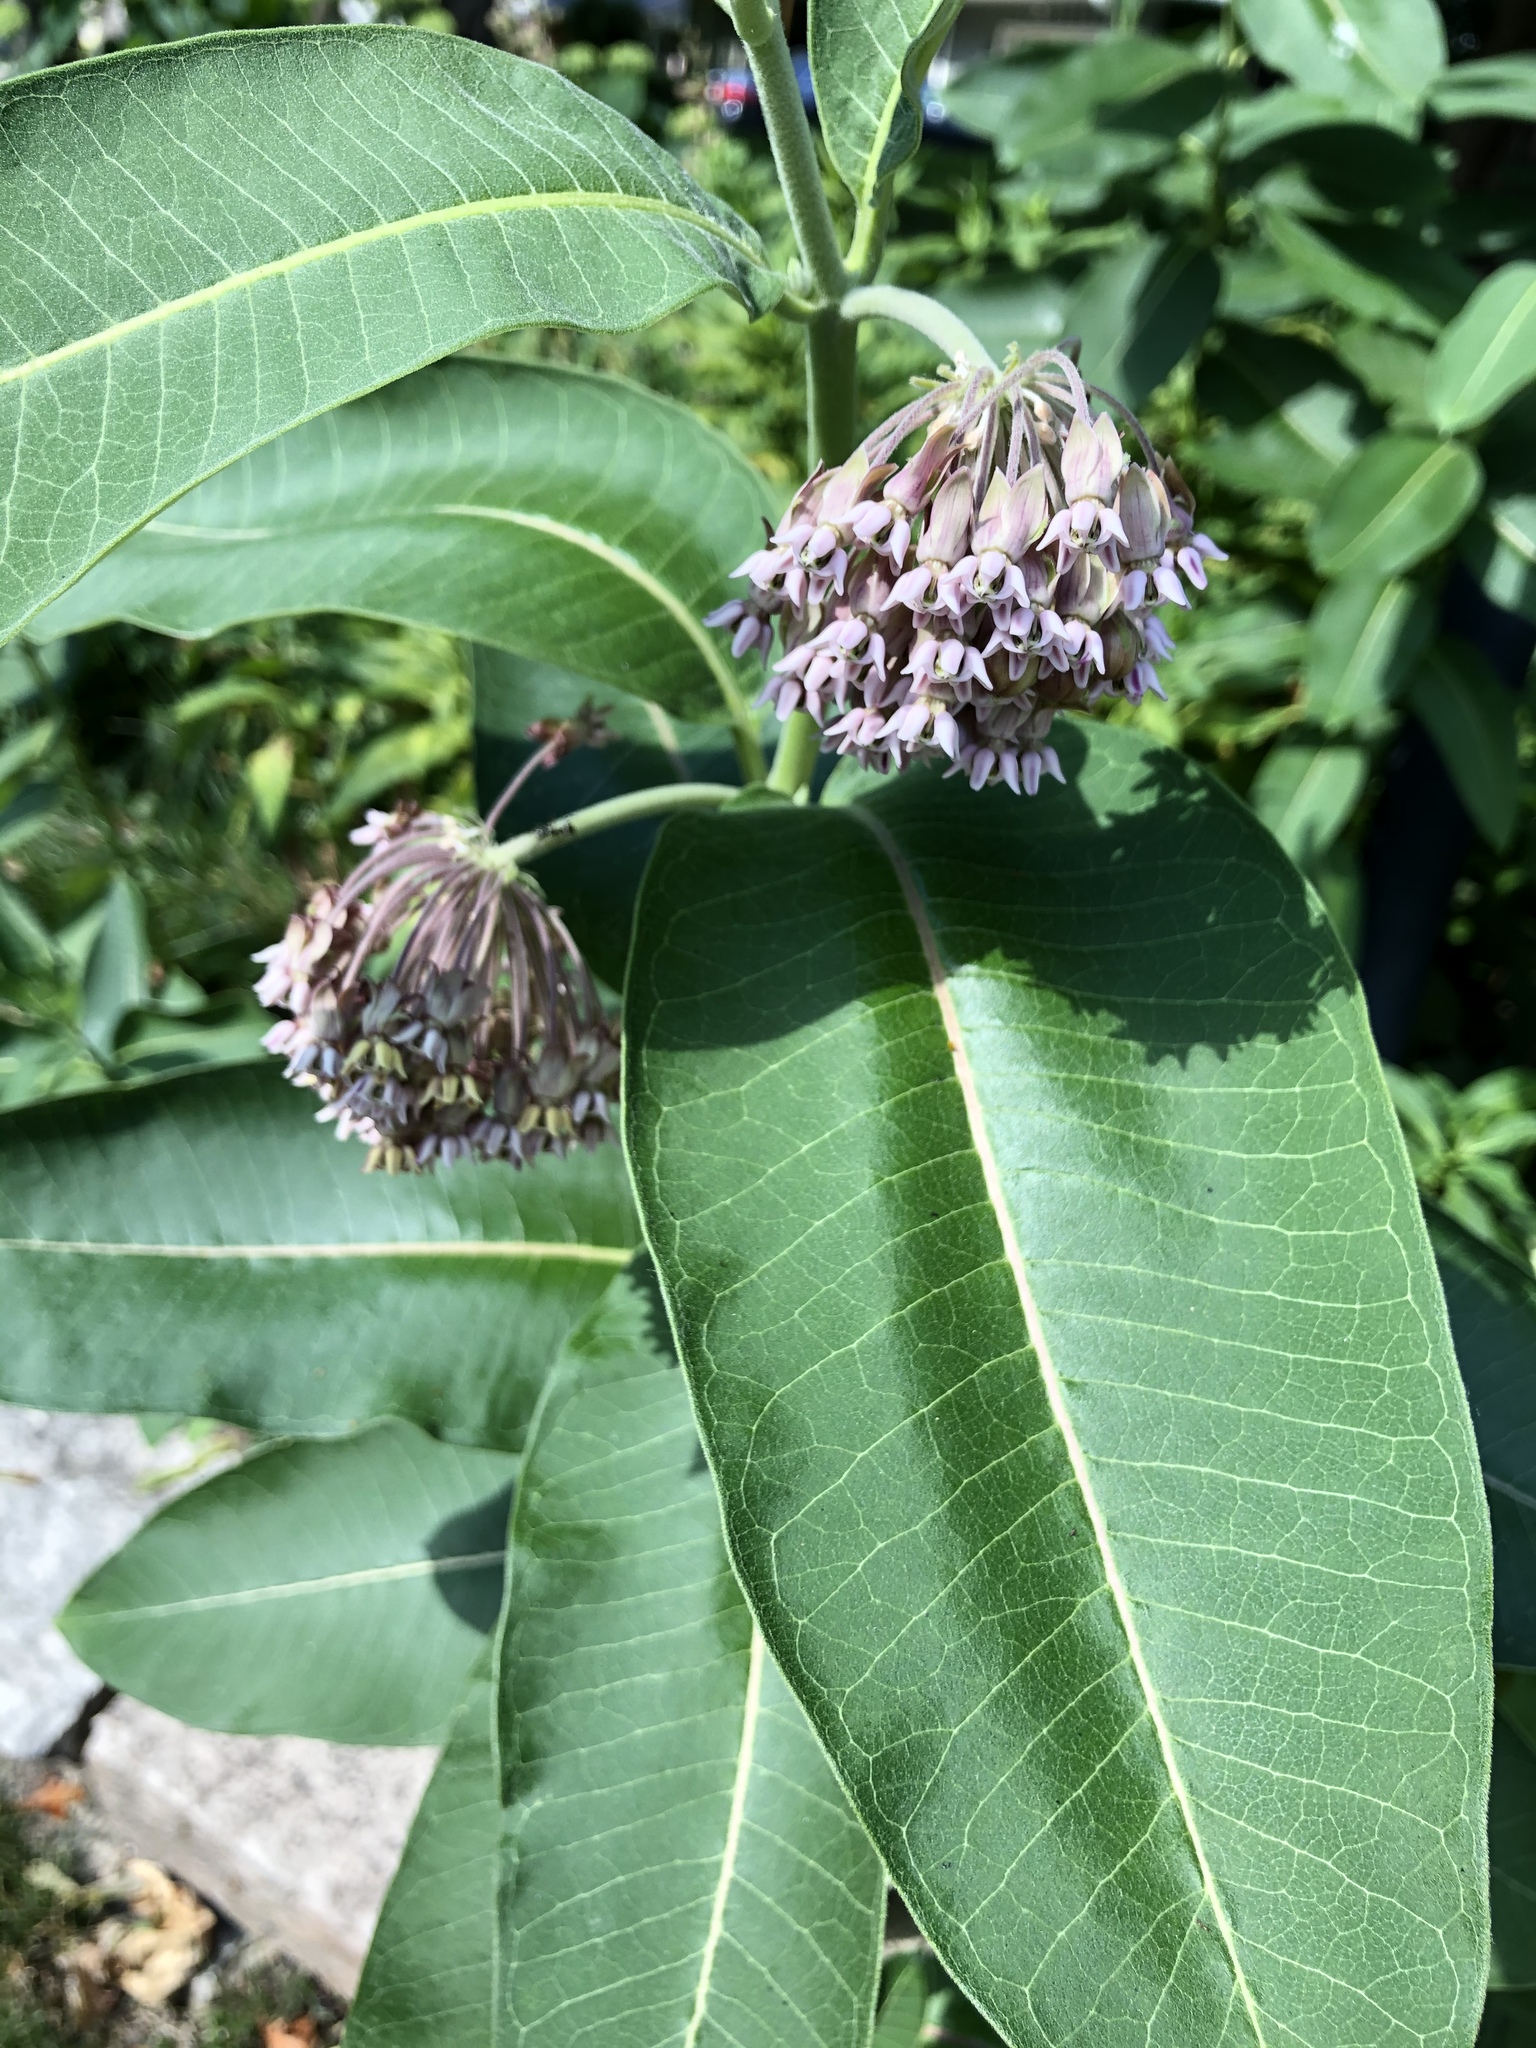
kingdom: Plantae
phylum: Tracheophyta
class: Magnoliopsida
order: Gentianales
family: Apocynaceae
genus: Asclepias
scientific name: Asclepias syriaca
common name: Common milkweed
